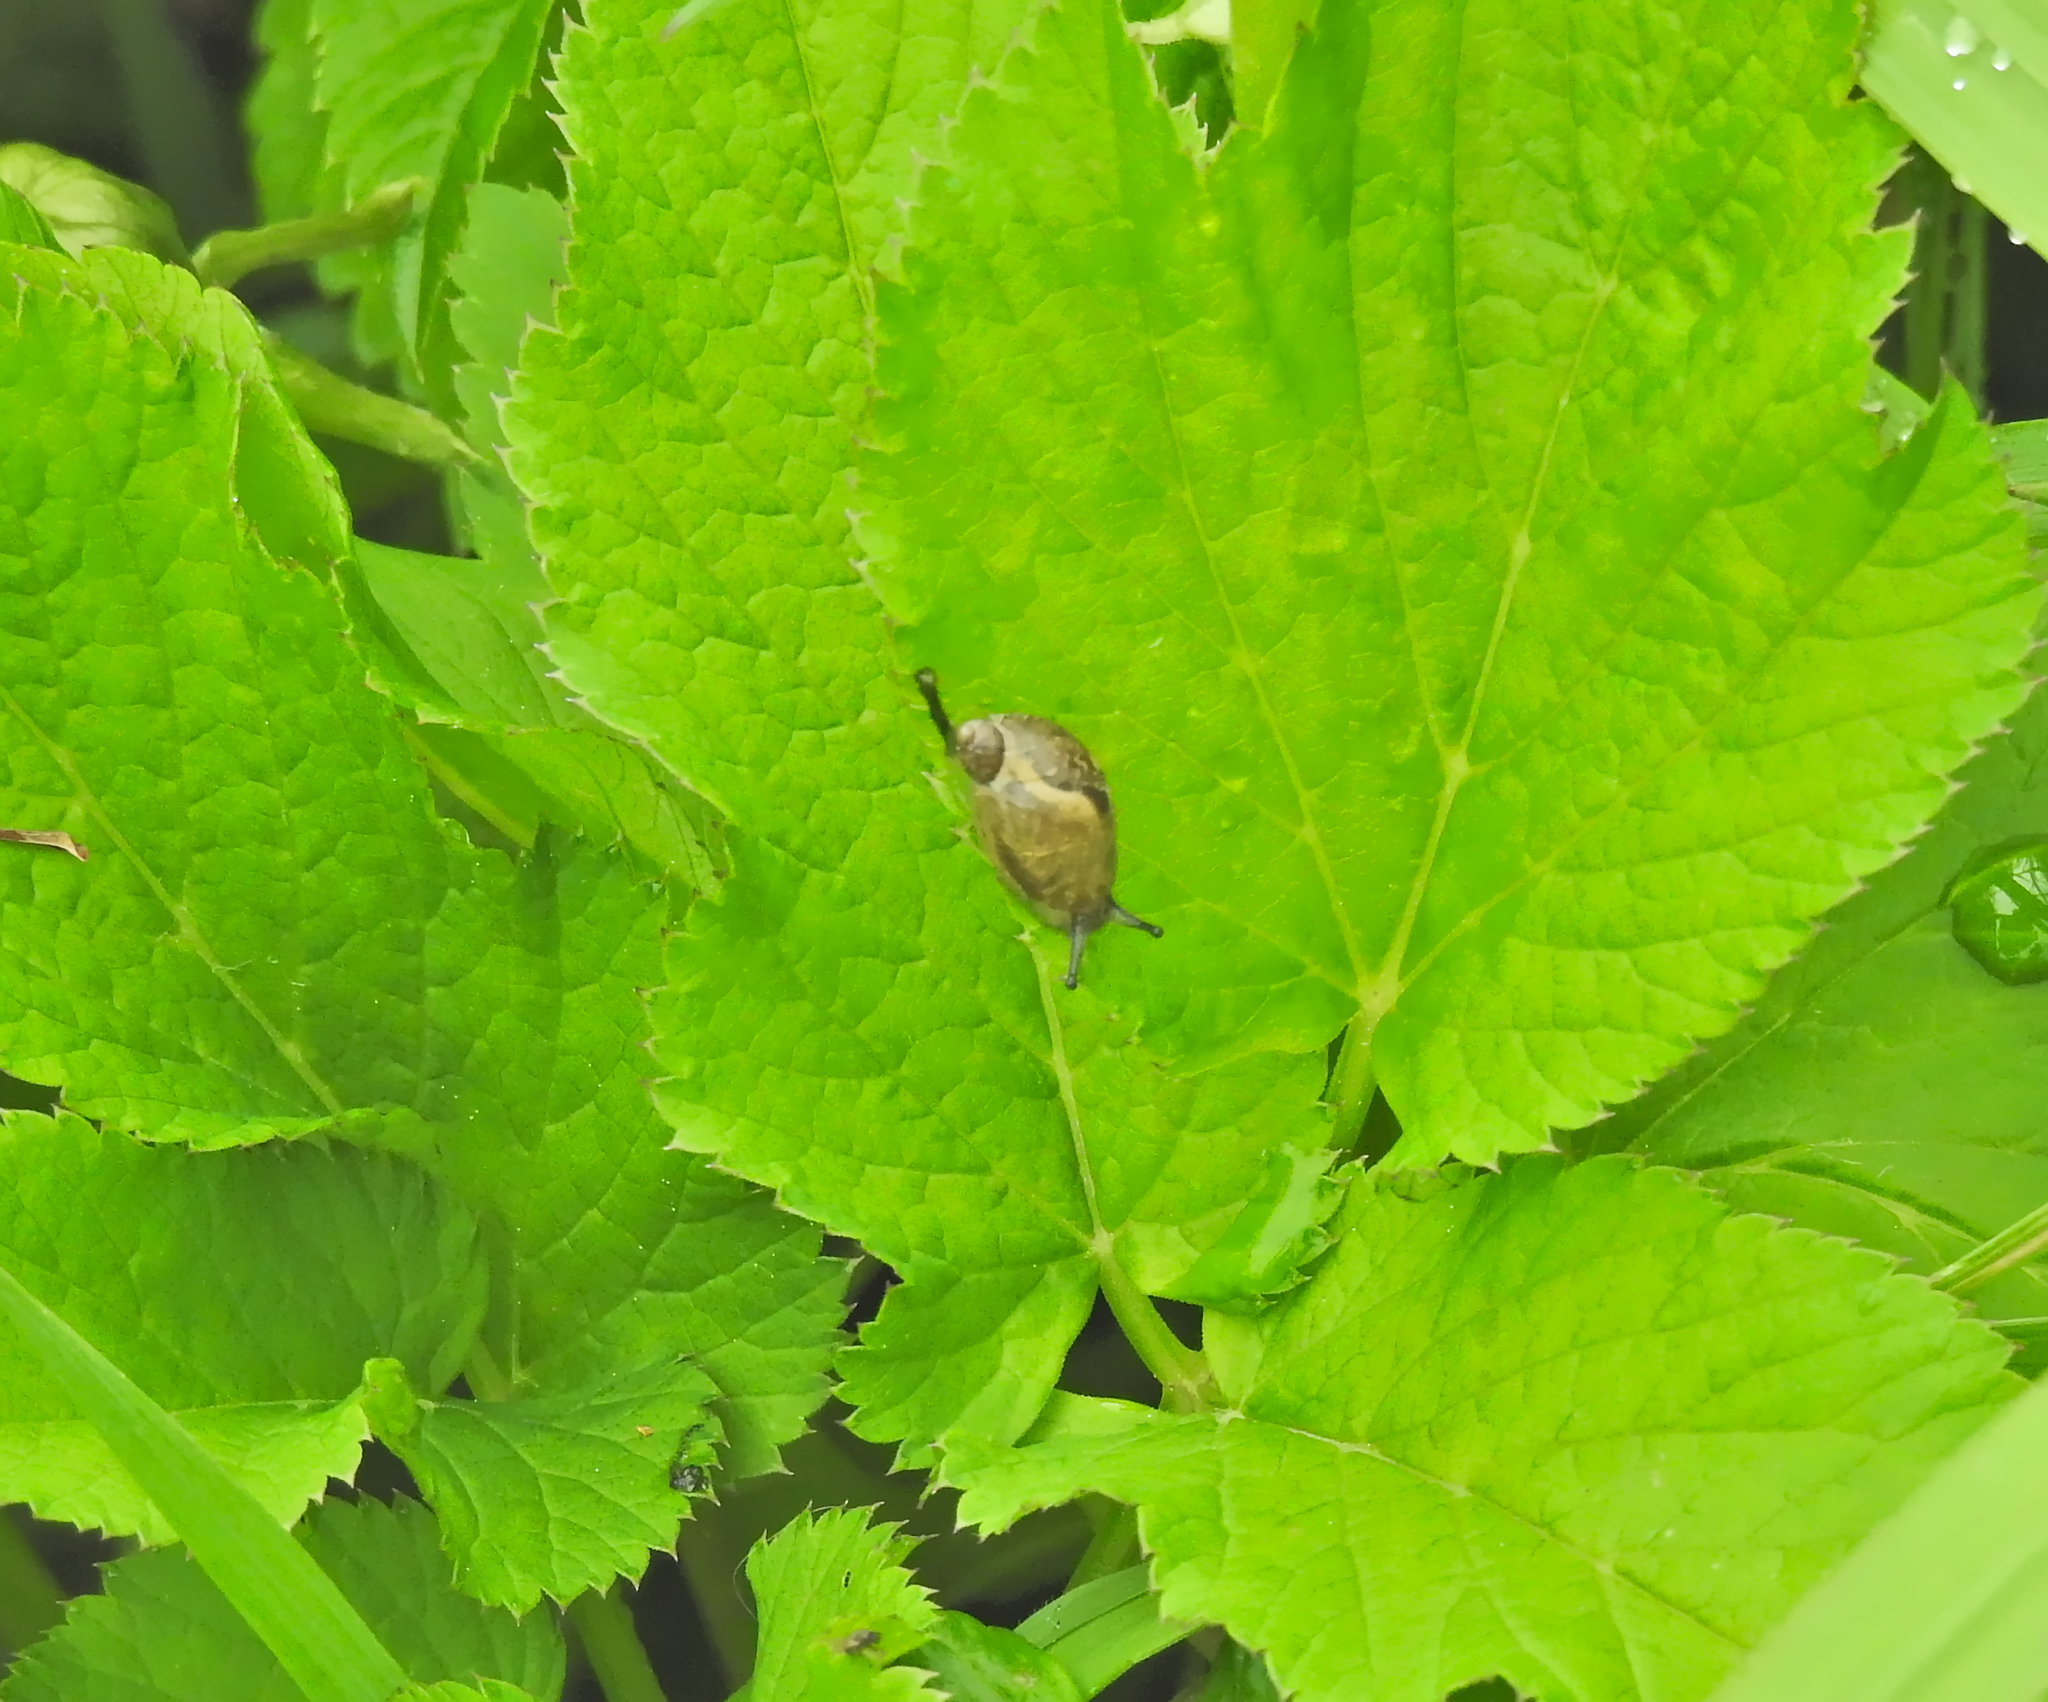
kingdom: Animalia
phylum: Mollusca
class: Gastropoda
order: Stylommatophora
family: Succineidae
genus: Succinea
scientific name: Succinea putris
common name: European ambersnail
